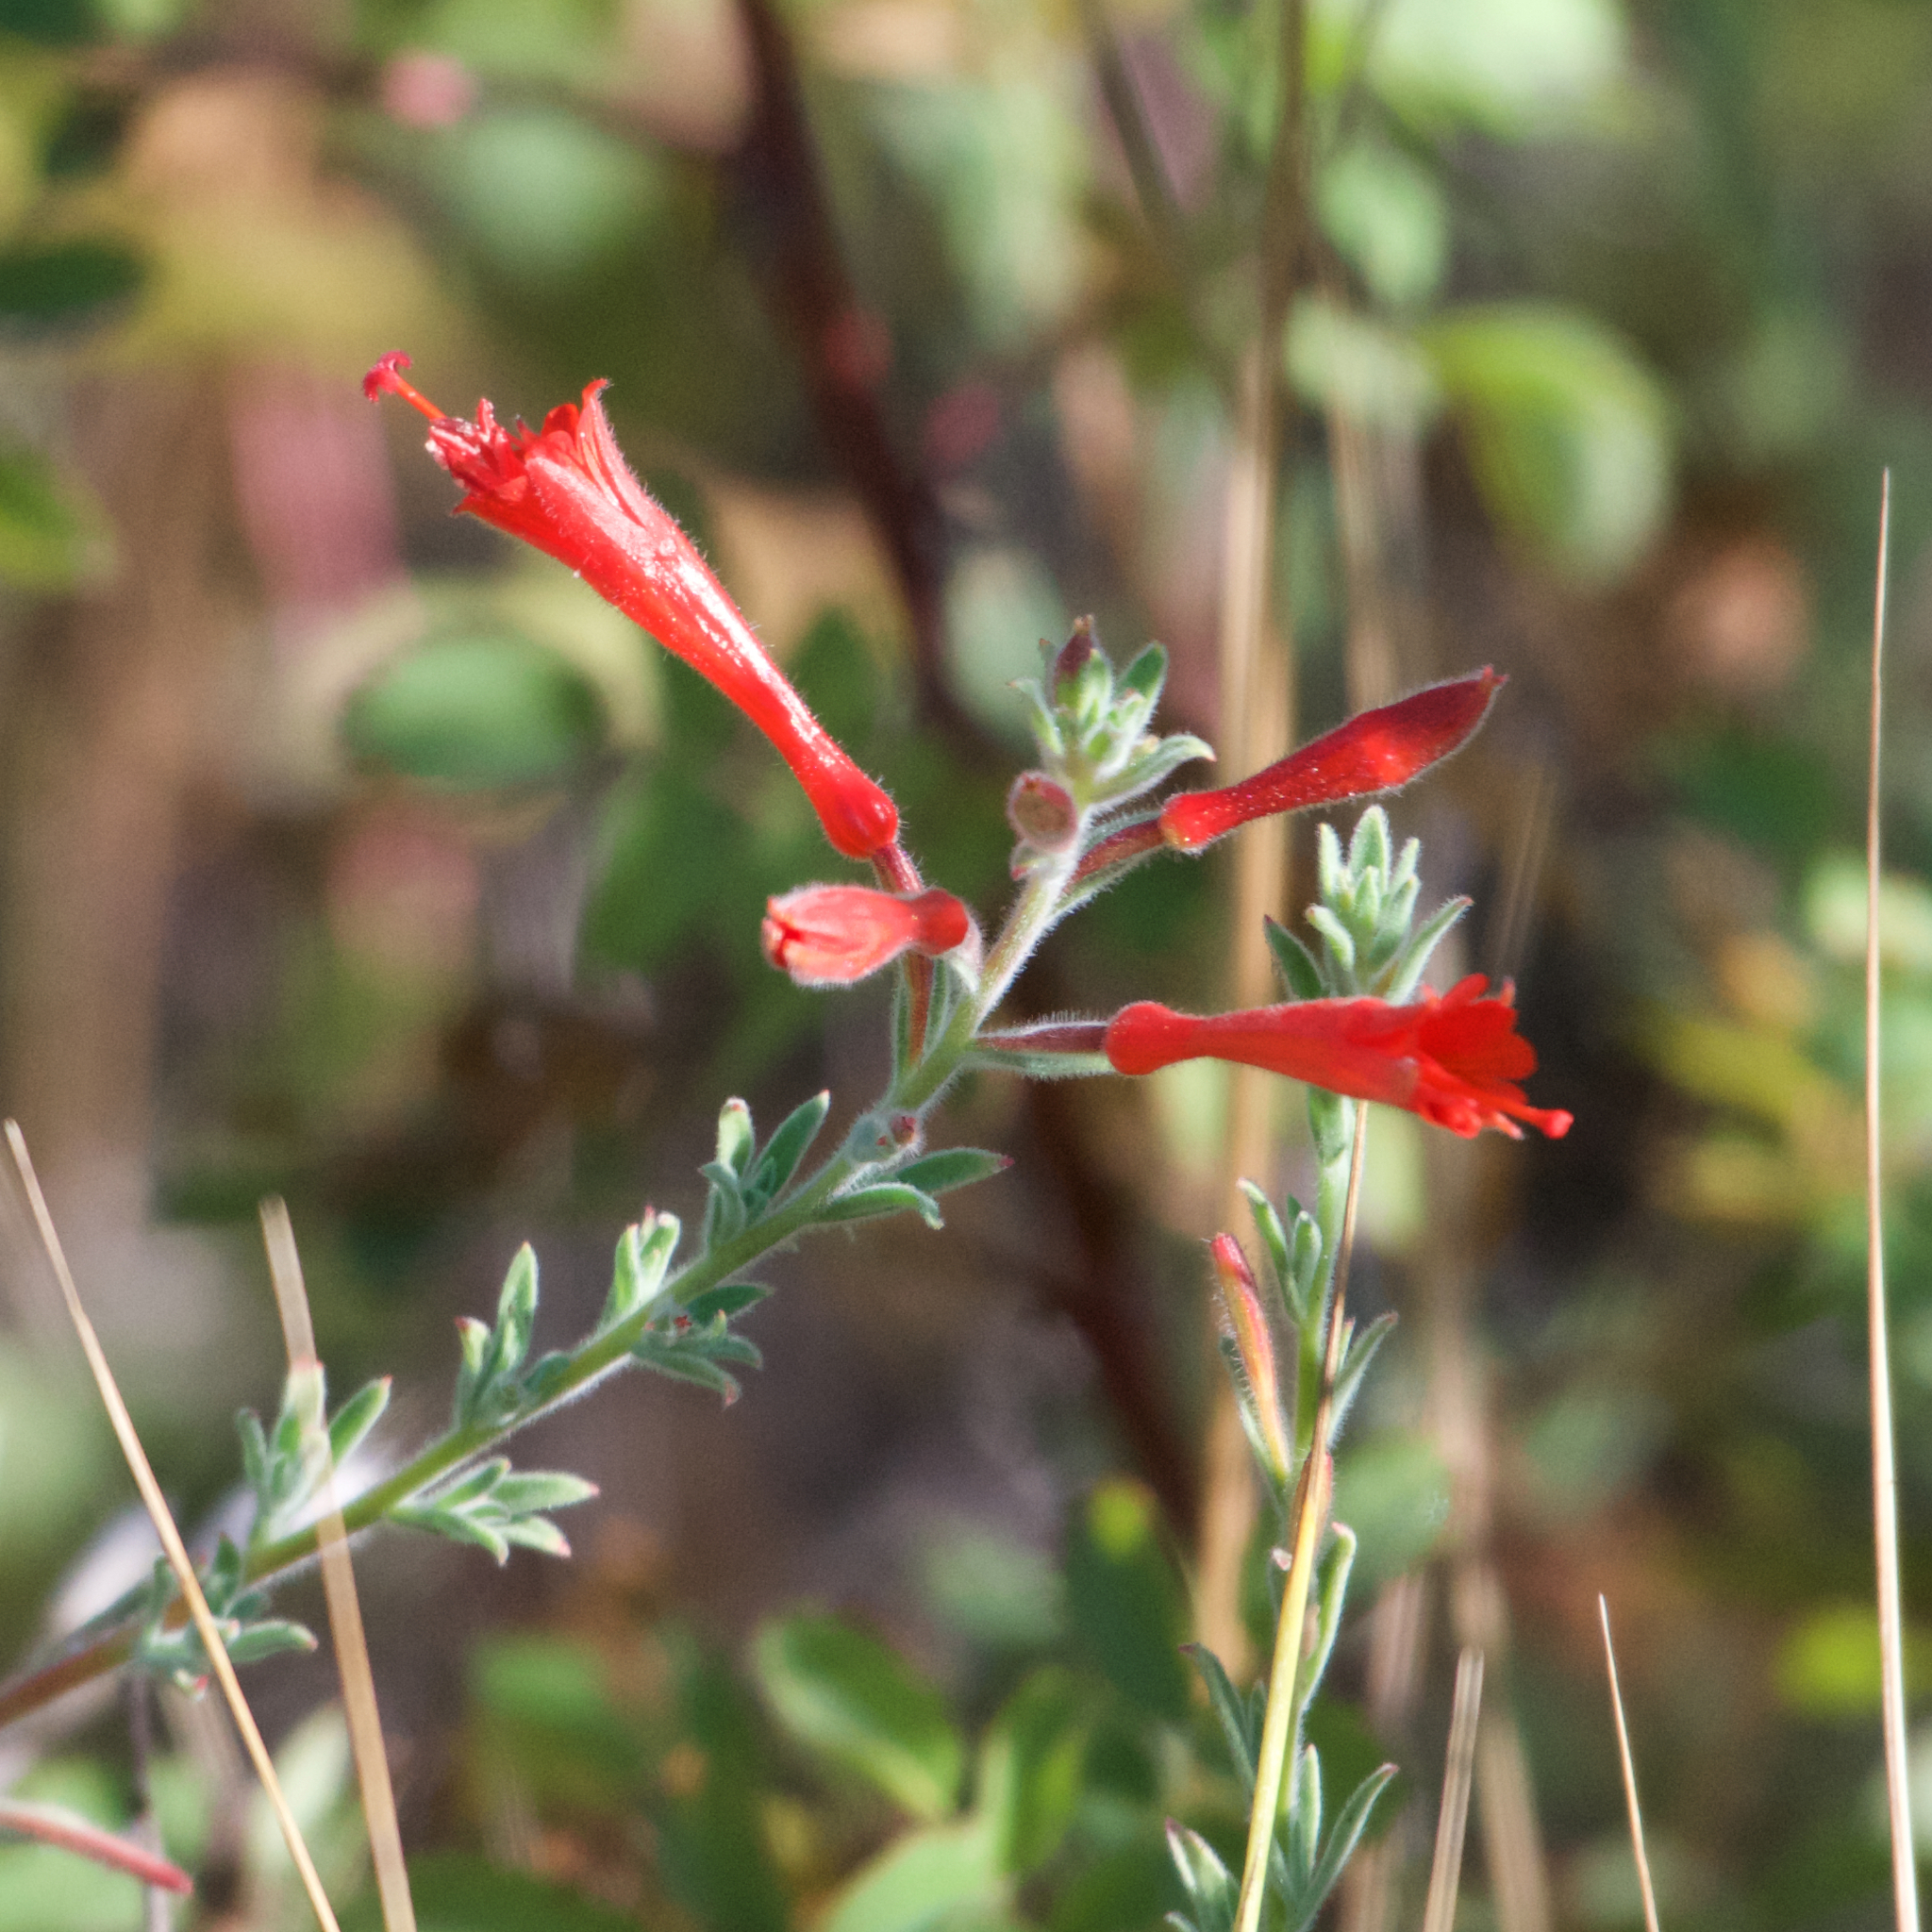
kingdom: Plantae
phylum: Tracheophyta
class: Magnoliopsida
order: Myrtales
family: Onagraceae
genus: Epilobium
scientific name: Epilobium canum
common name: California-fuchsia
